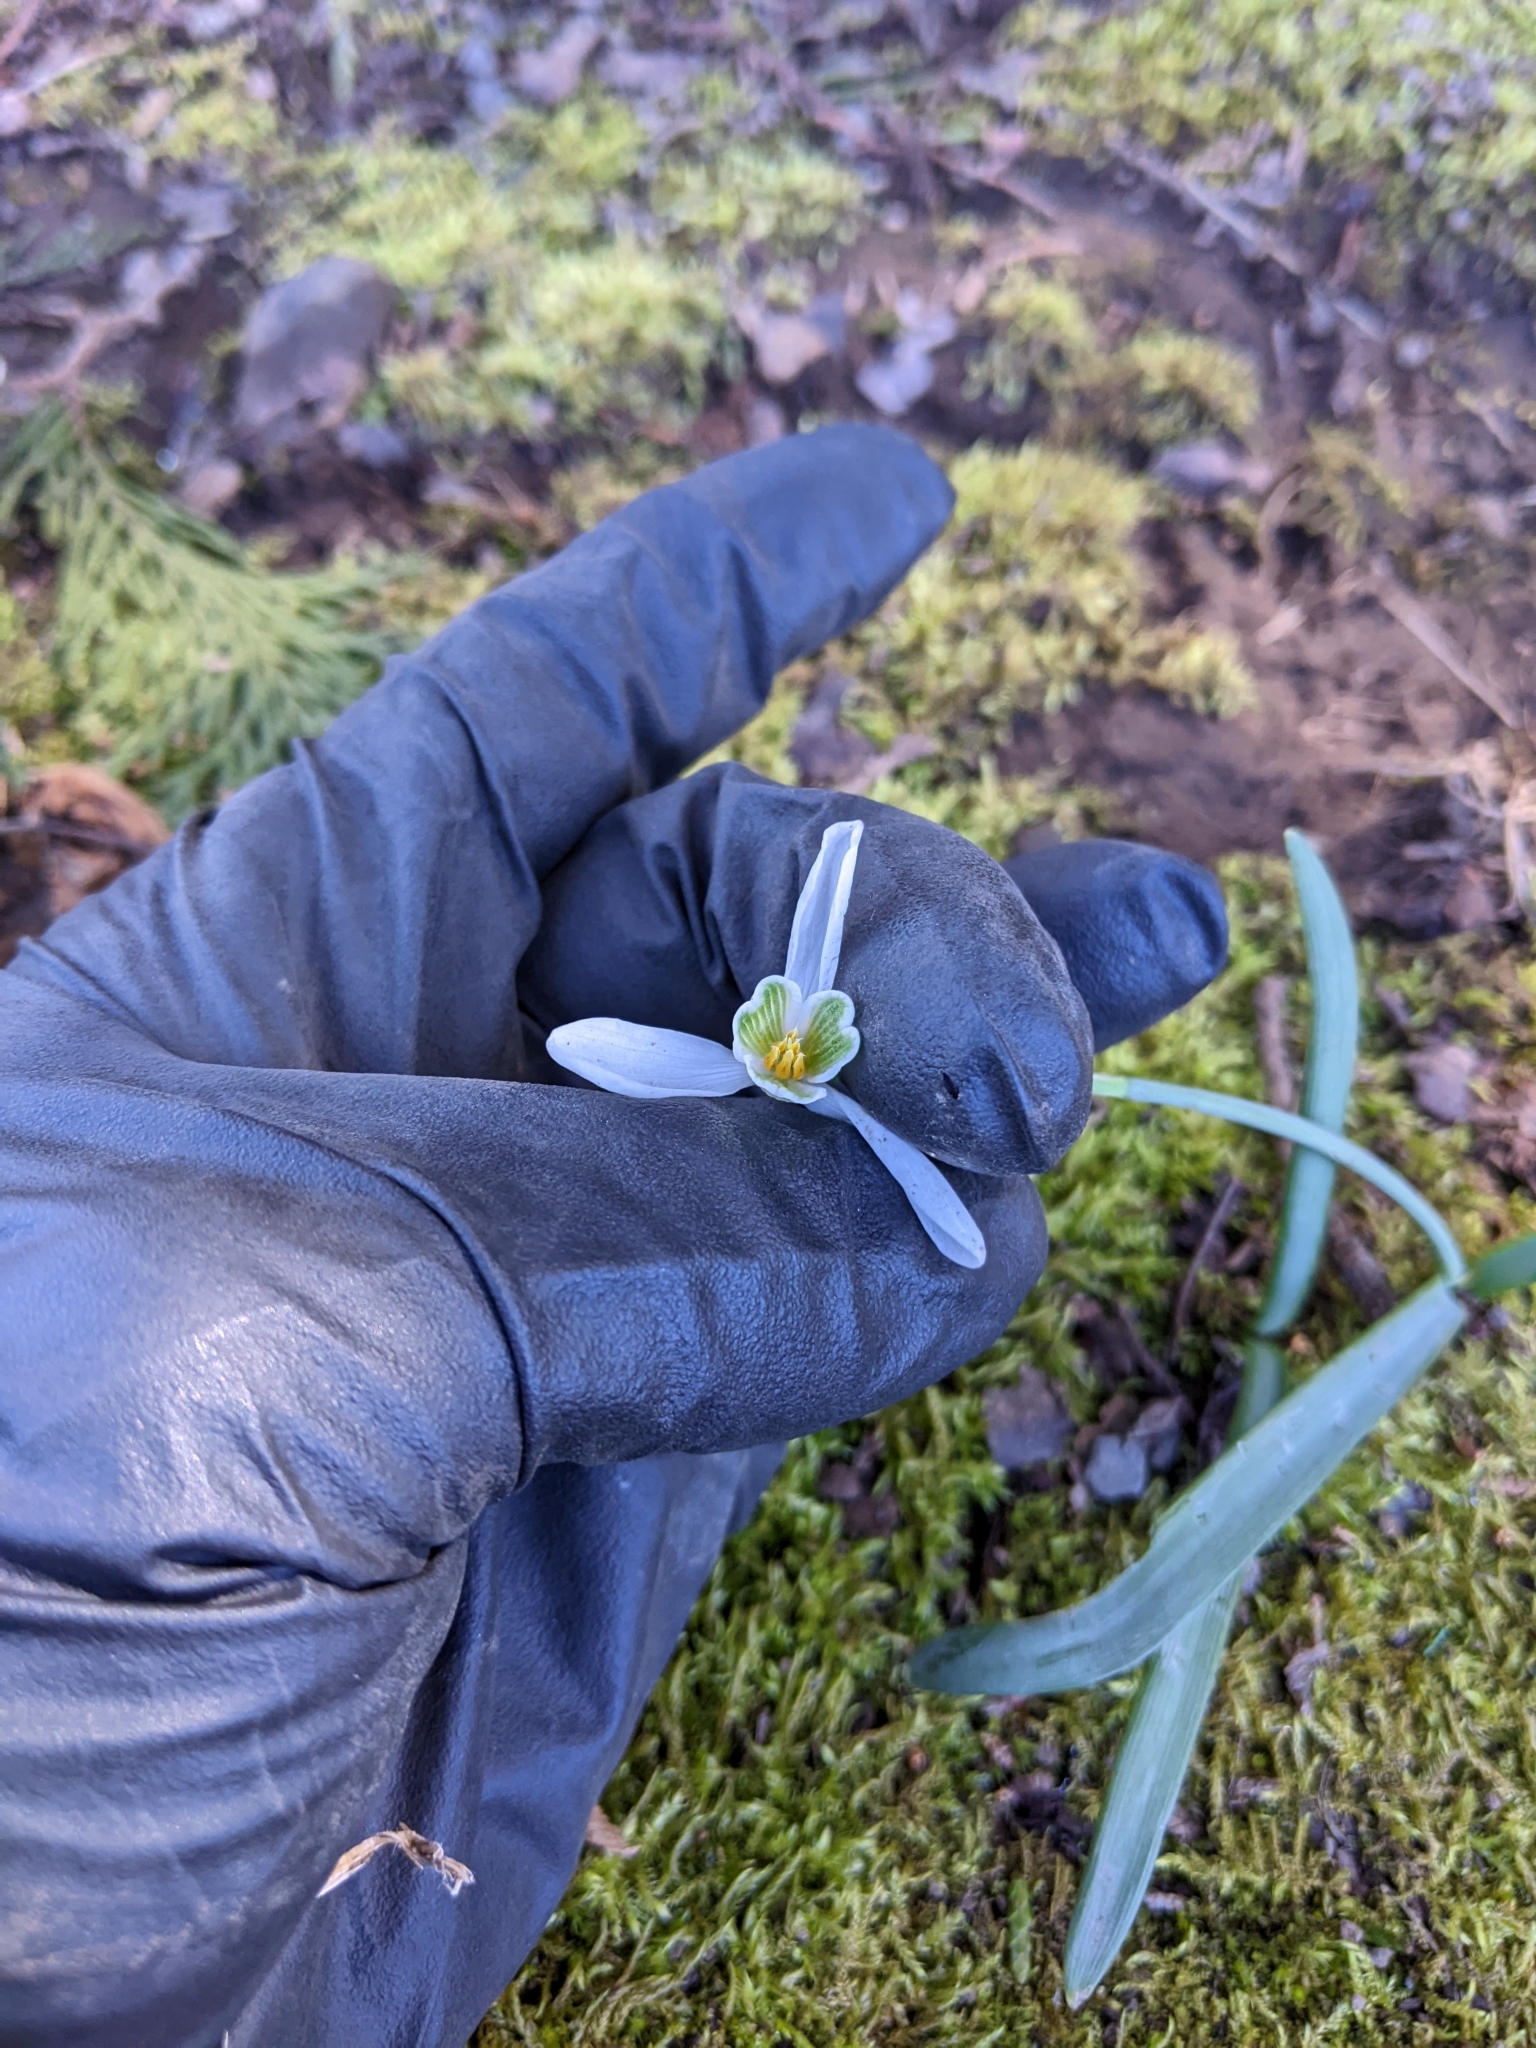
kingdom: Plantae
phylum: Tracheophyta
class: Liliopsida
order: Asparagales
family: Amaryllidaceae
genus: Galanthus
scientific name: Galanthus nivalis
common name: Snowdrop
